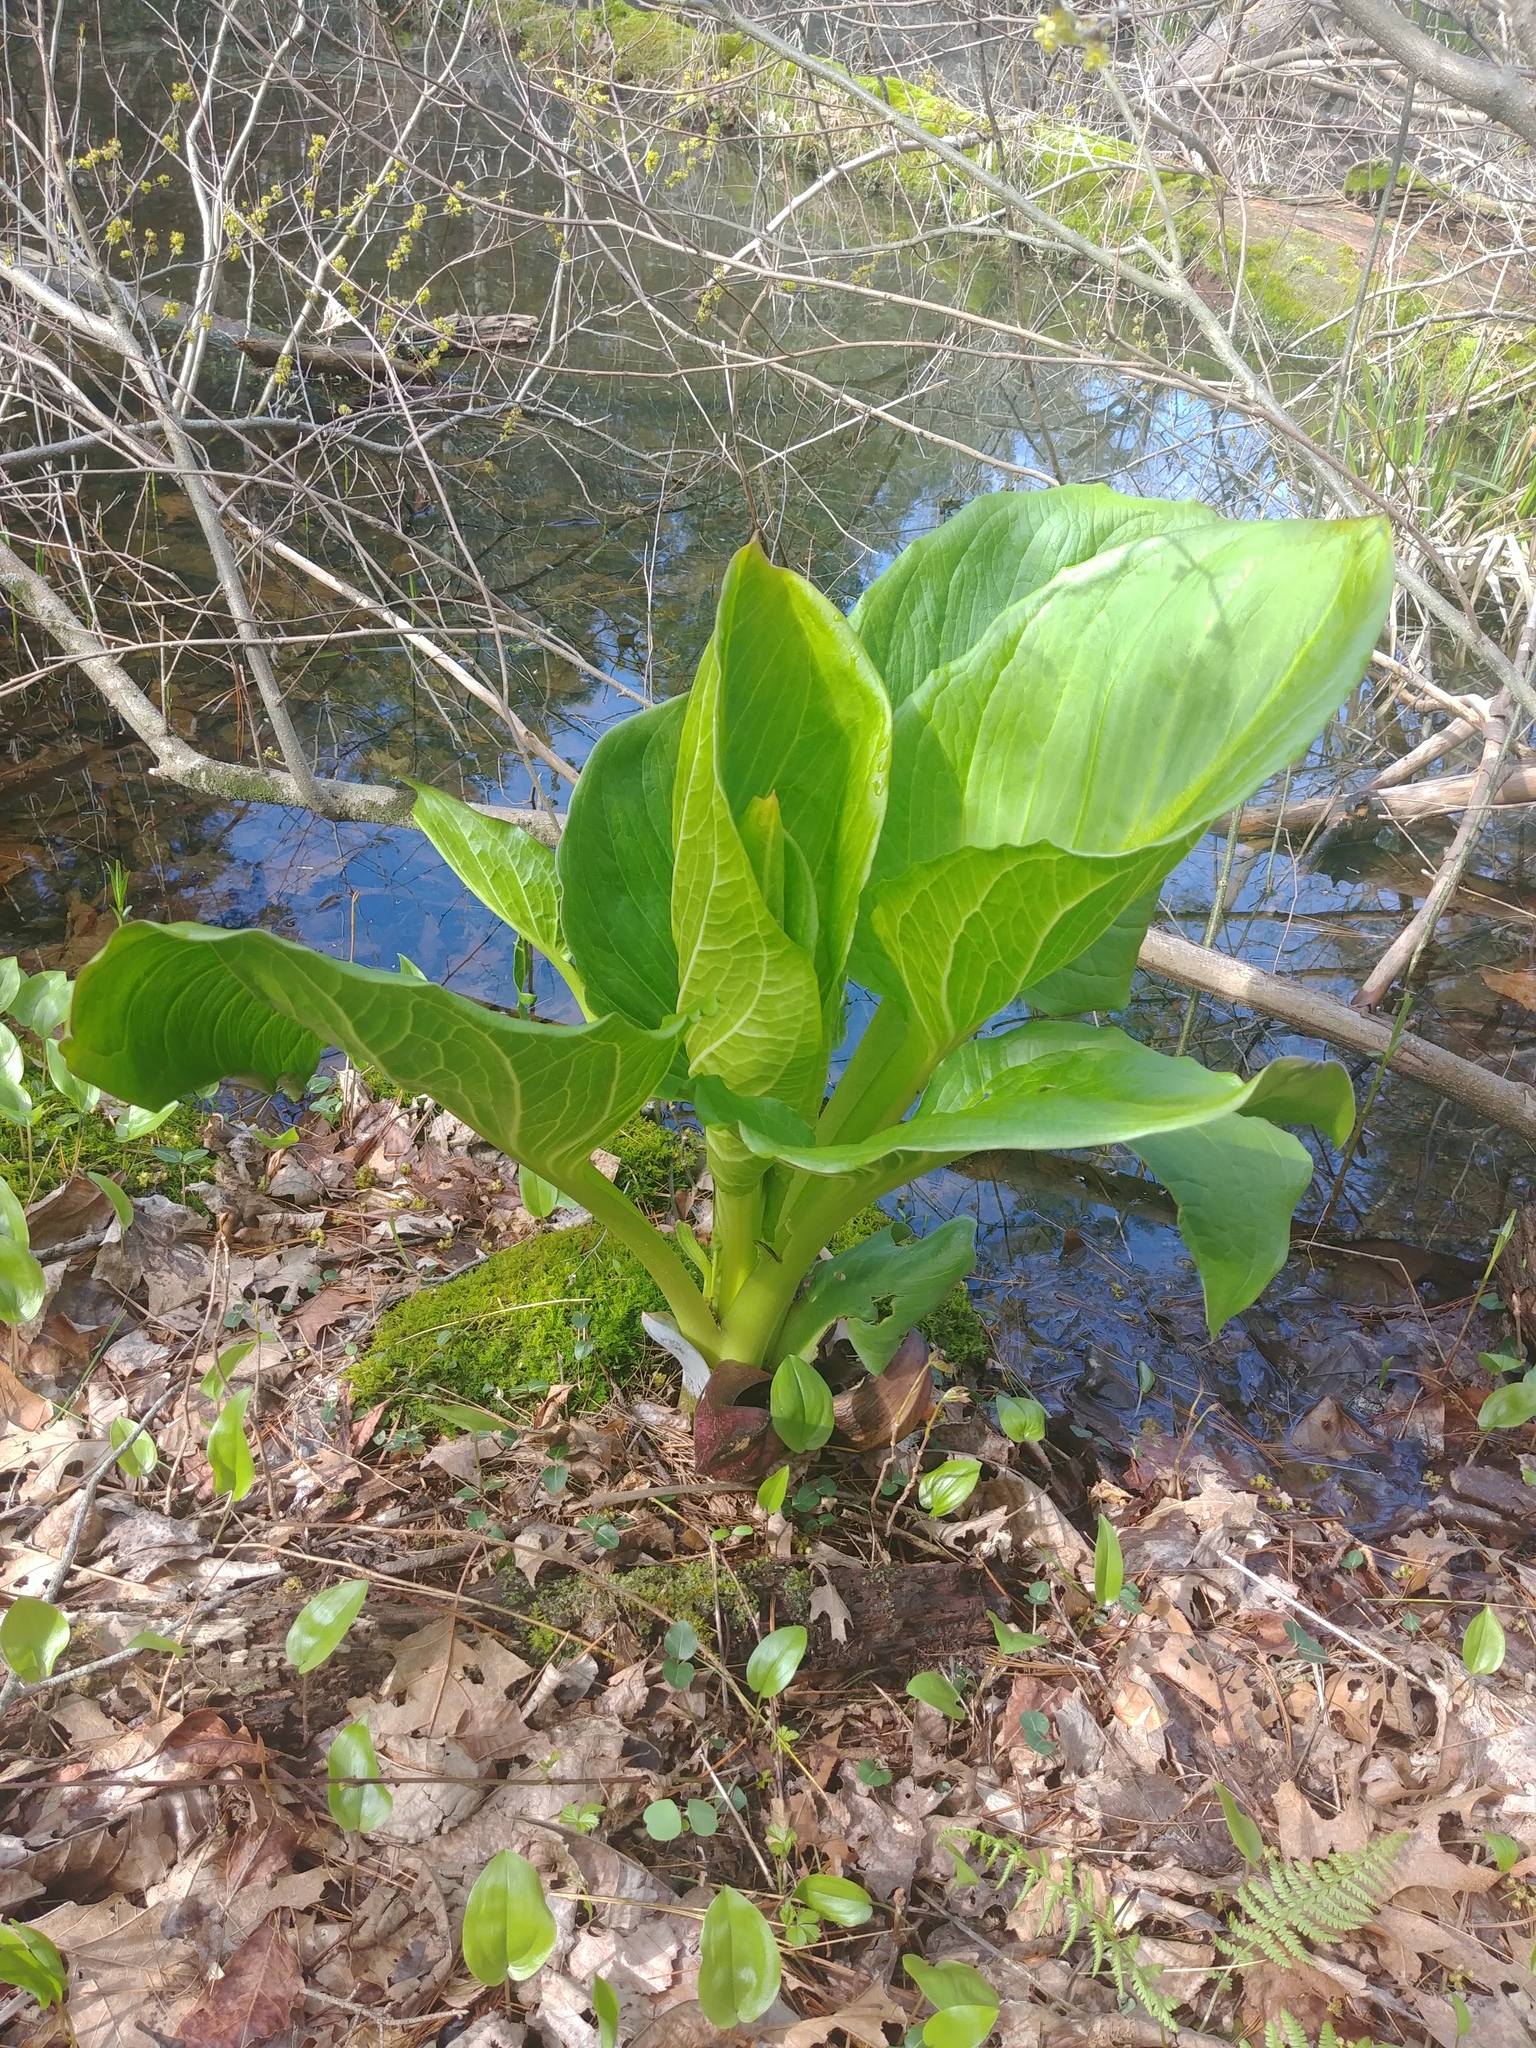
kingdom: Plantae
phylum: Tracheophyta
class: Liliopsida
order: Alismatales
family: Araceae
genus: Symplocarpus
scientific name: Symplocarpus foetidus
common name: Eastern skunk cabbage
